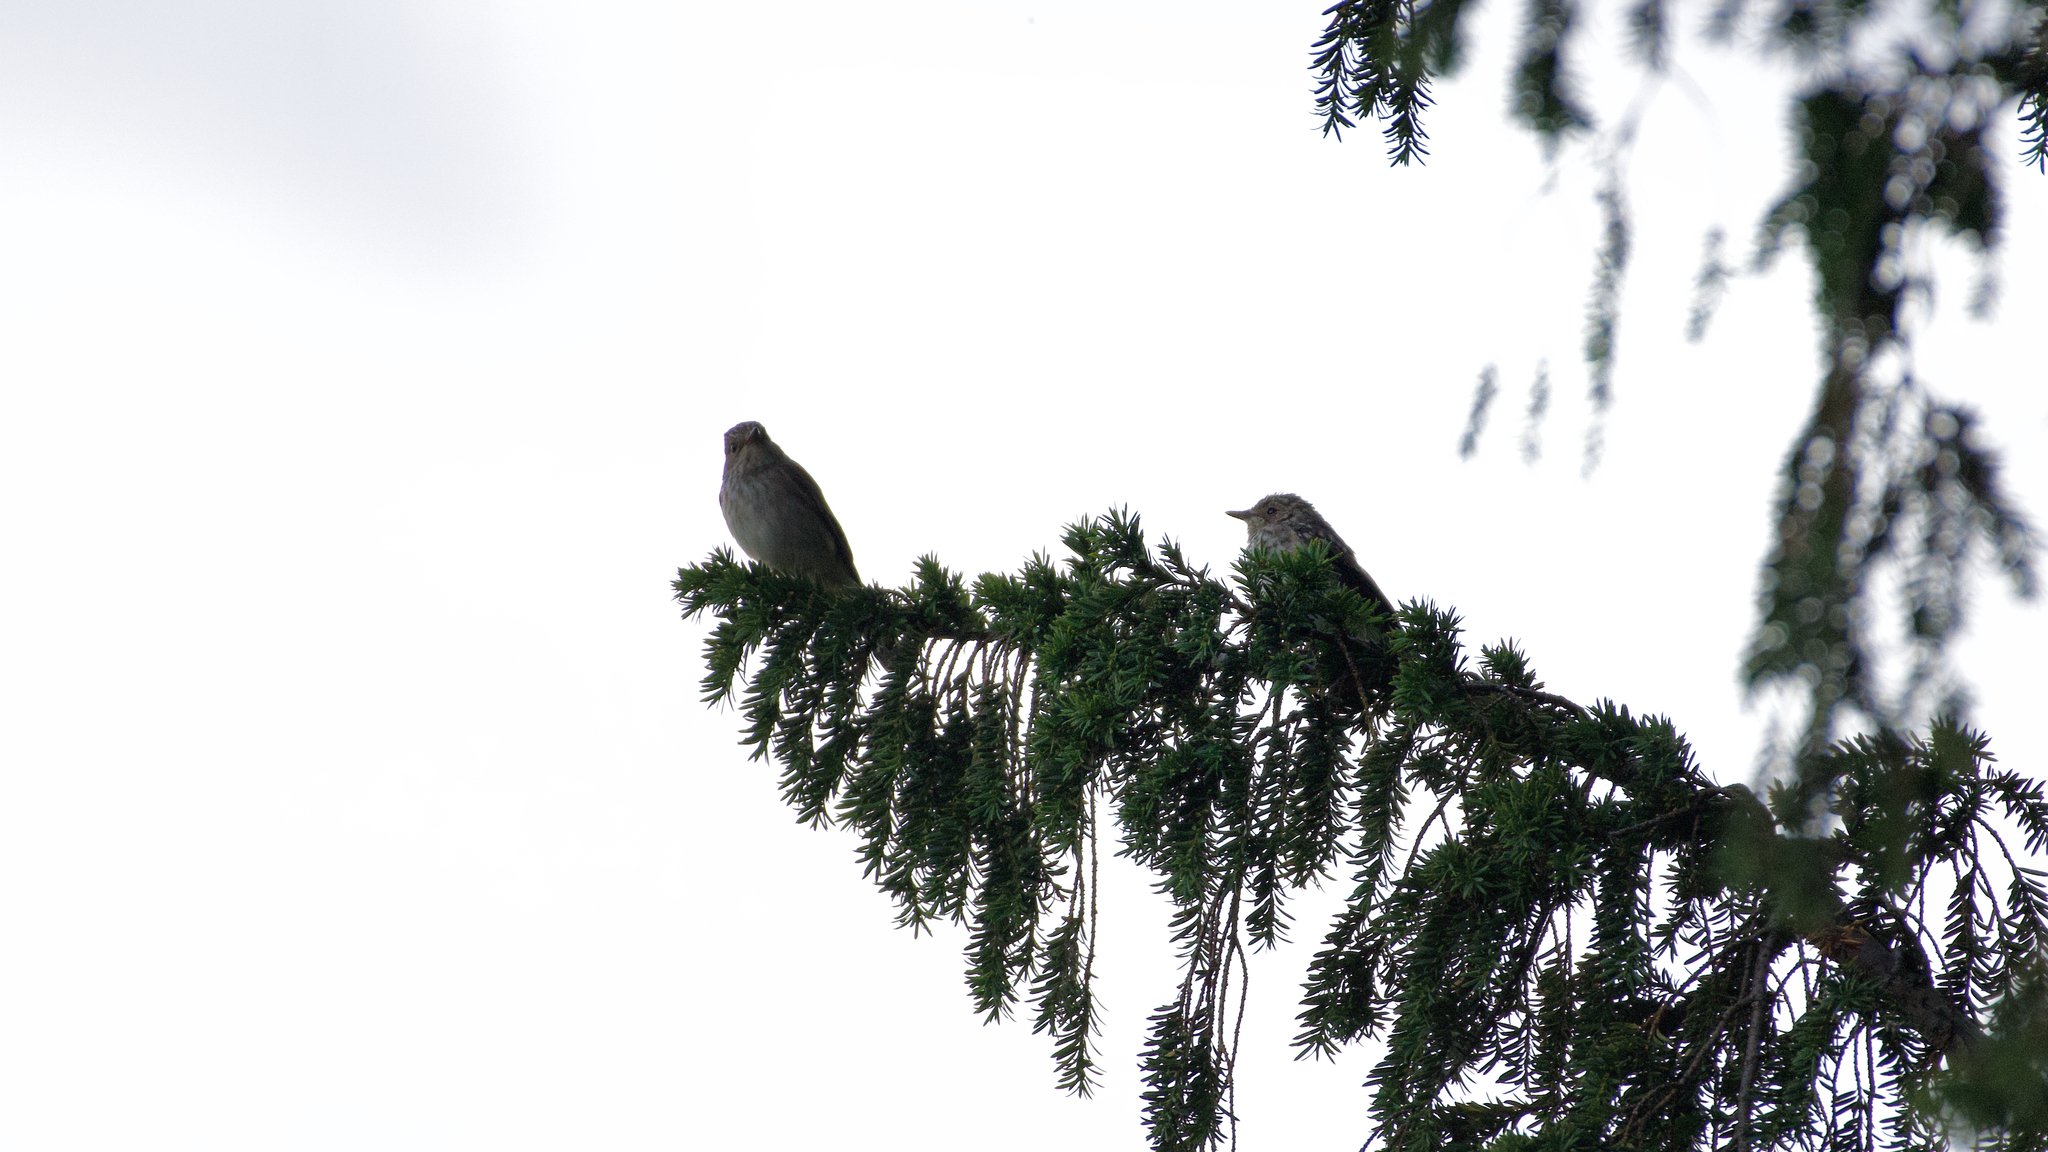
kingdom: Animalia
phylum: Chordata
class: Aves
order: Passeriformes
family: Muscicapidae
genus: Muscicapa
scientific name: Muscicapa striata
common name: Spotted flycatcher
